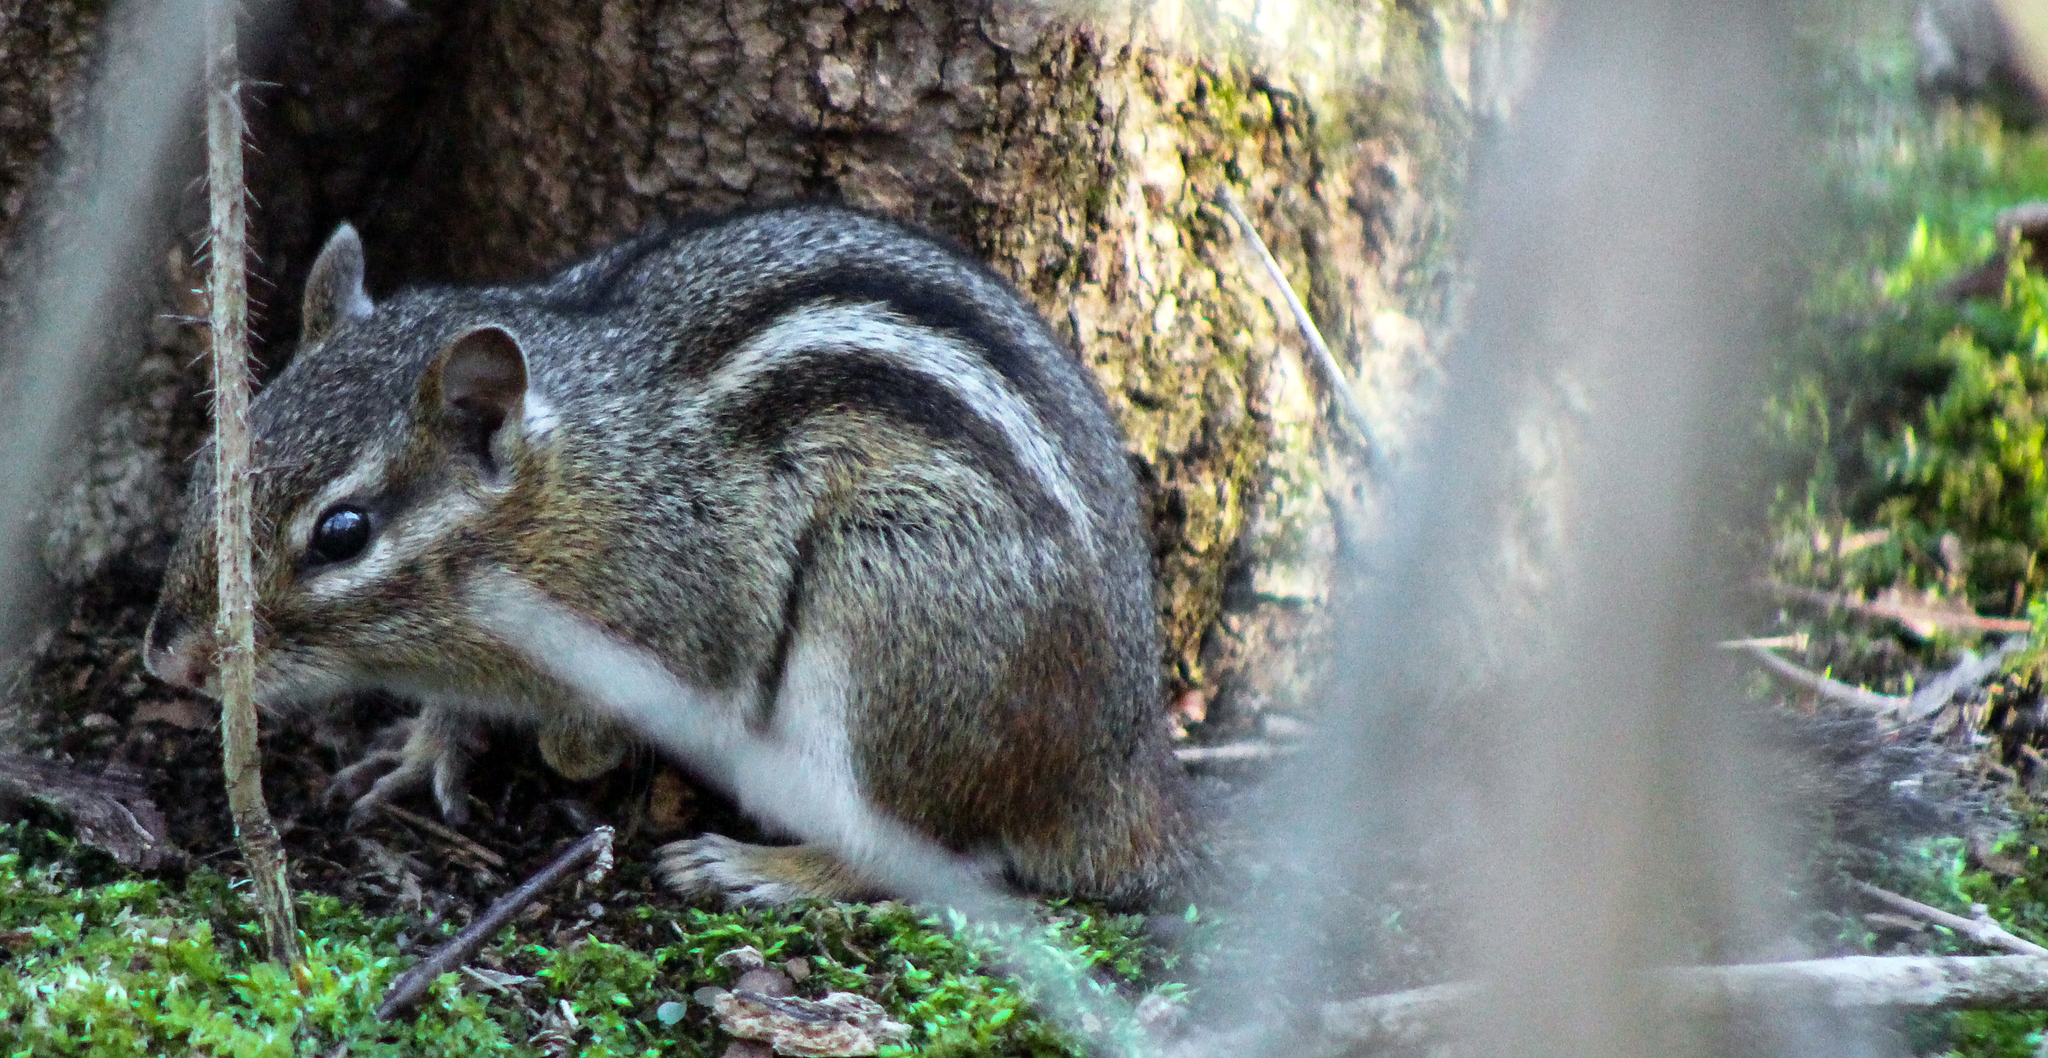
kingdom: Animalia
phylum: Chordata
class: Mammalia
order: Rodentia
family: Sciuridae
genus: Tamias
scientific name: Tamias striatus
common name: Eastern chipmunk
